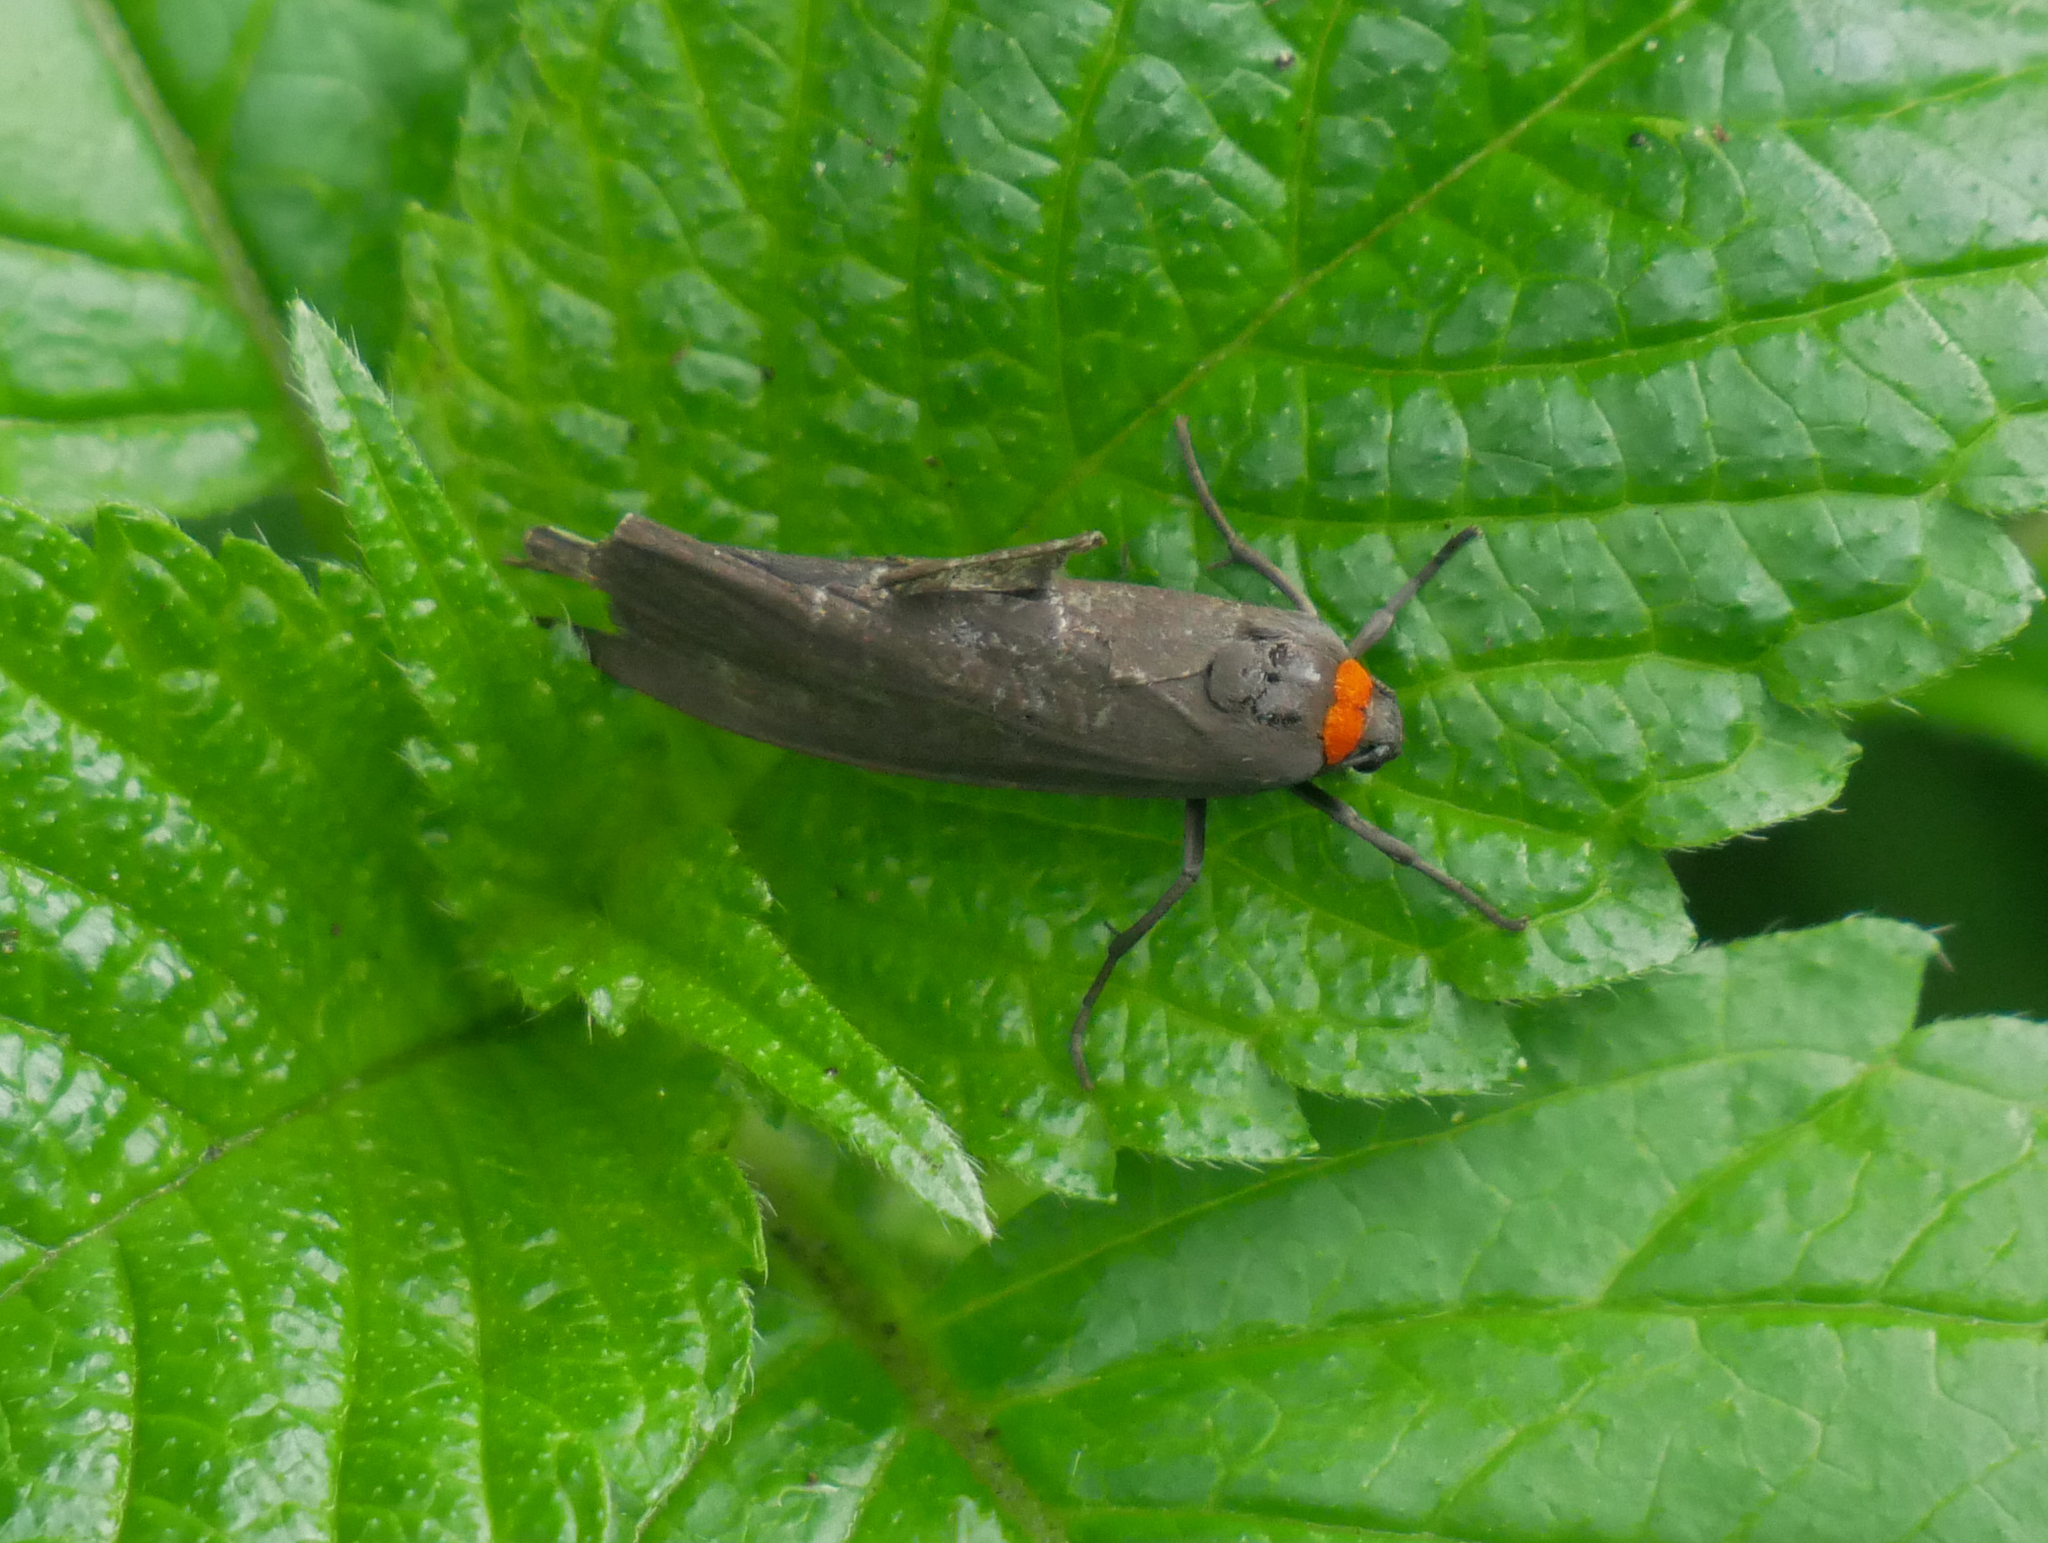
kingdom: Animalia
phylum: Arthropoda
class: Insecta
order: Lepidoptera
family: Erebidae
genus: Atolmis
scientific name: Atolmis rubricollis
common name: Red-necked footman
